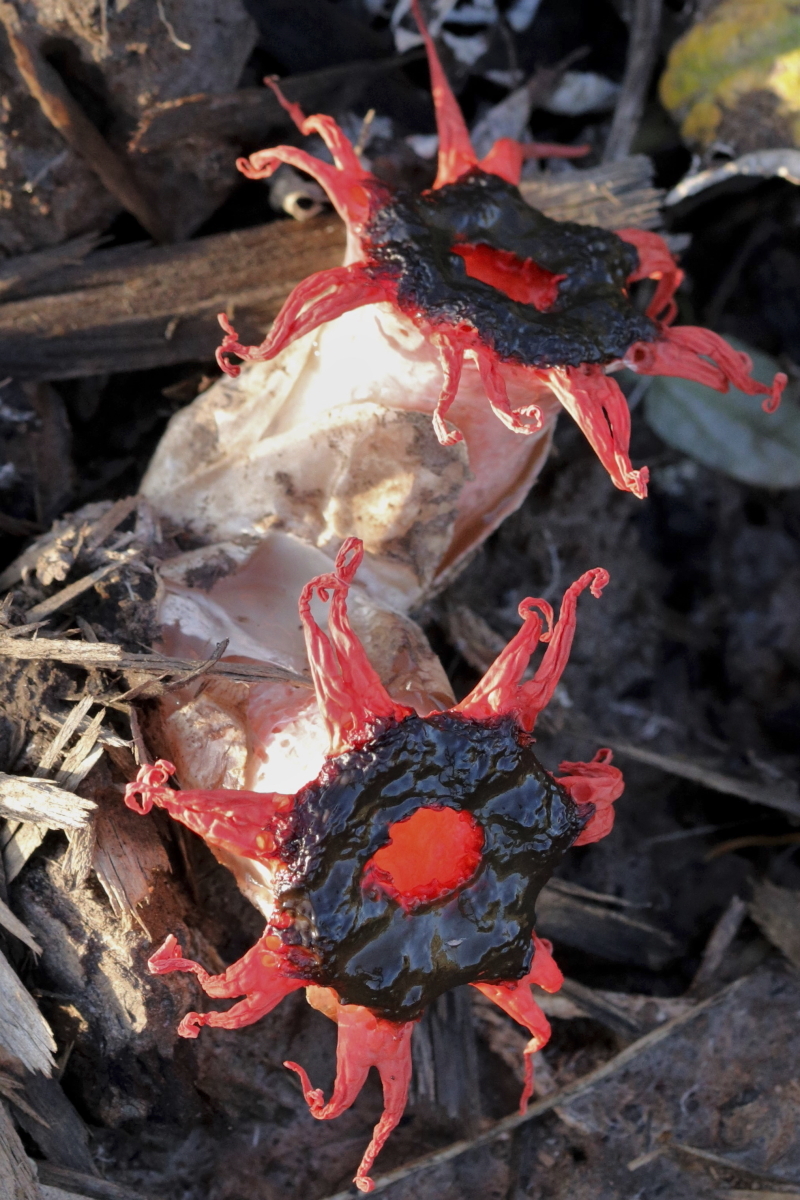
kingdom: Fungi
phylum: Basidiomycota
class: Agaricomycetes
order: Phallales
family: Phallaceae
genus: Aseroe
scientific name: Aseroe rubra
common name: Starfish fungus
